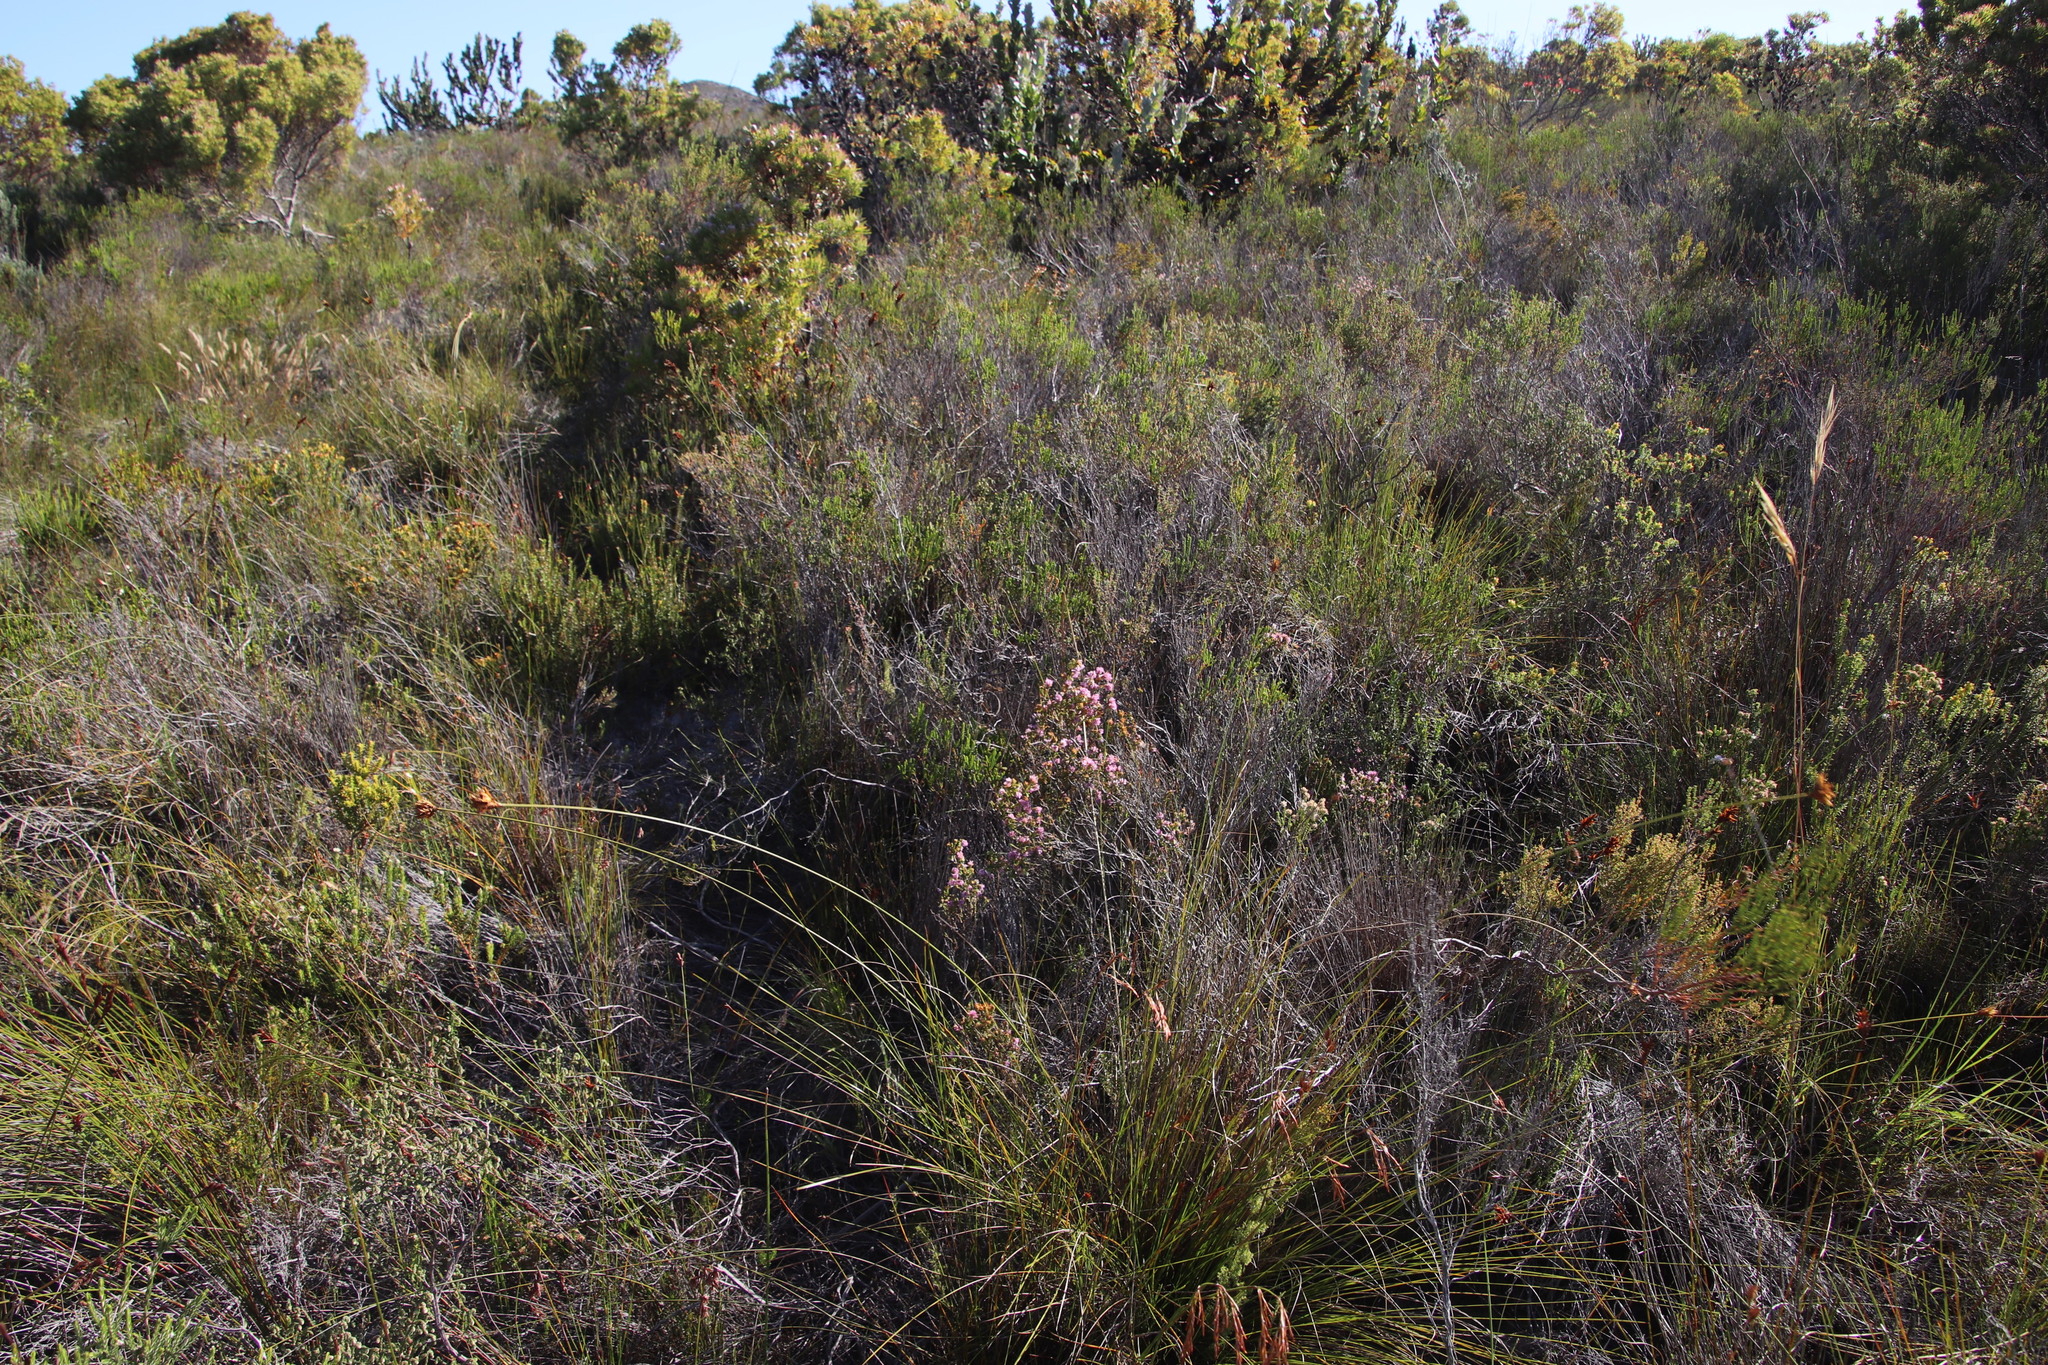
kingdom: Plantae
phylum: Tracheophyta
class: Liliopsida
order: Poales
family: Cyperaceae
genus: Schoenus
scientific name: Schoenus compar
